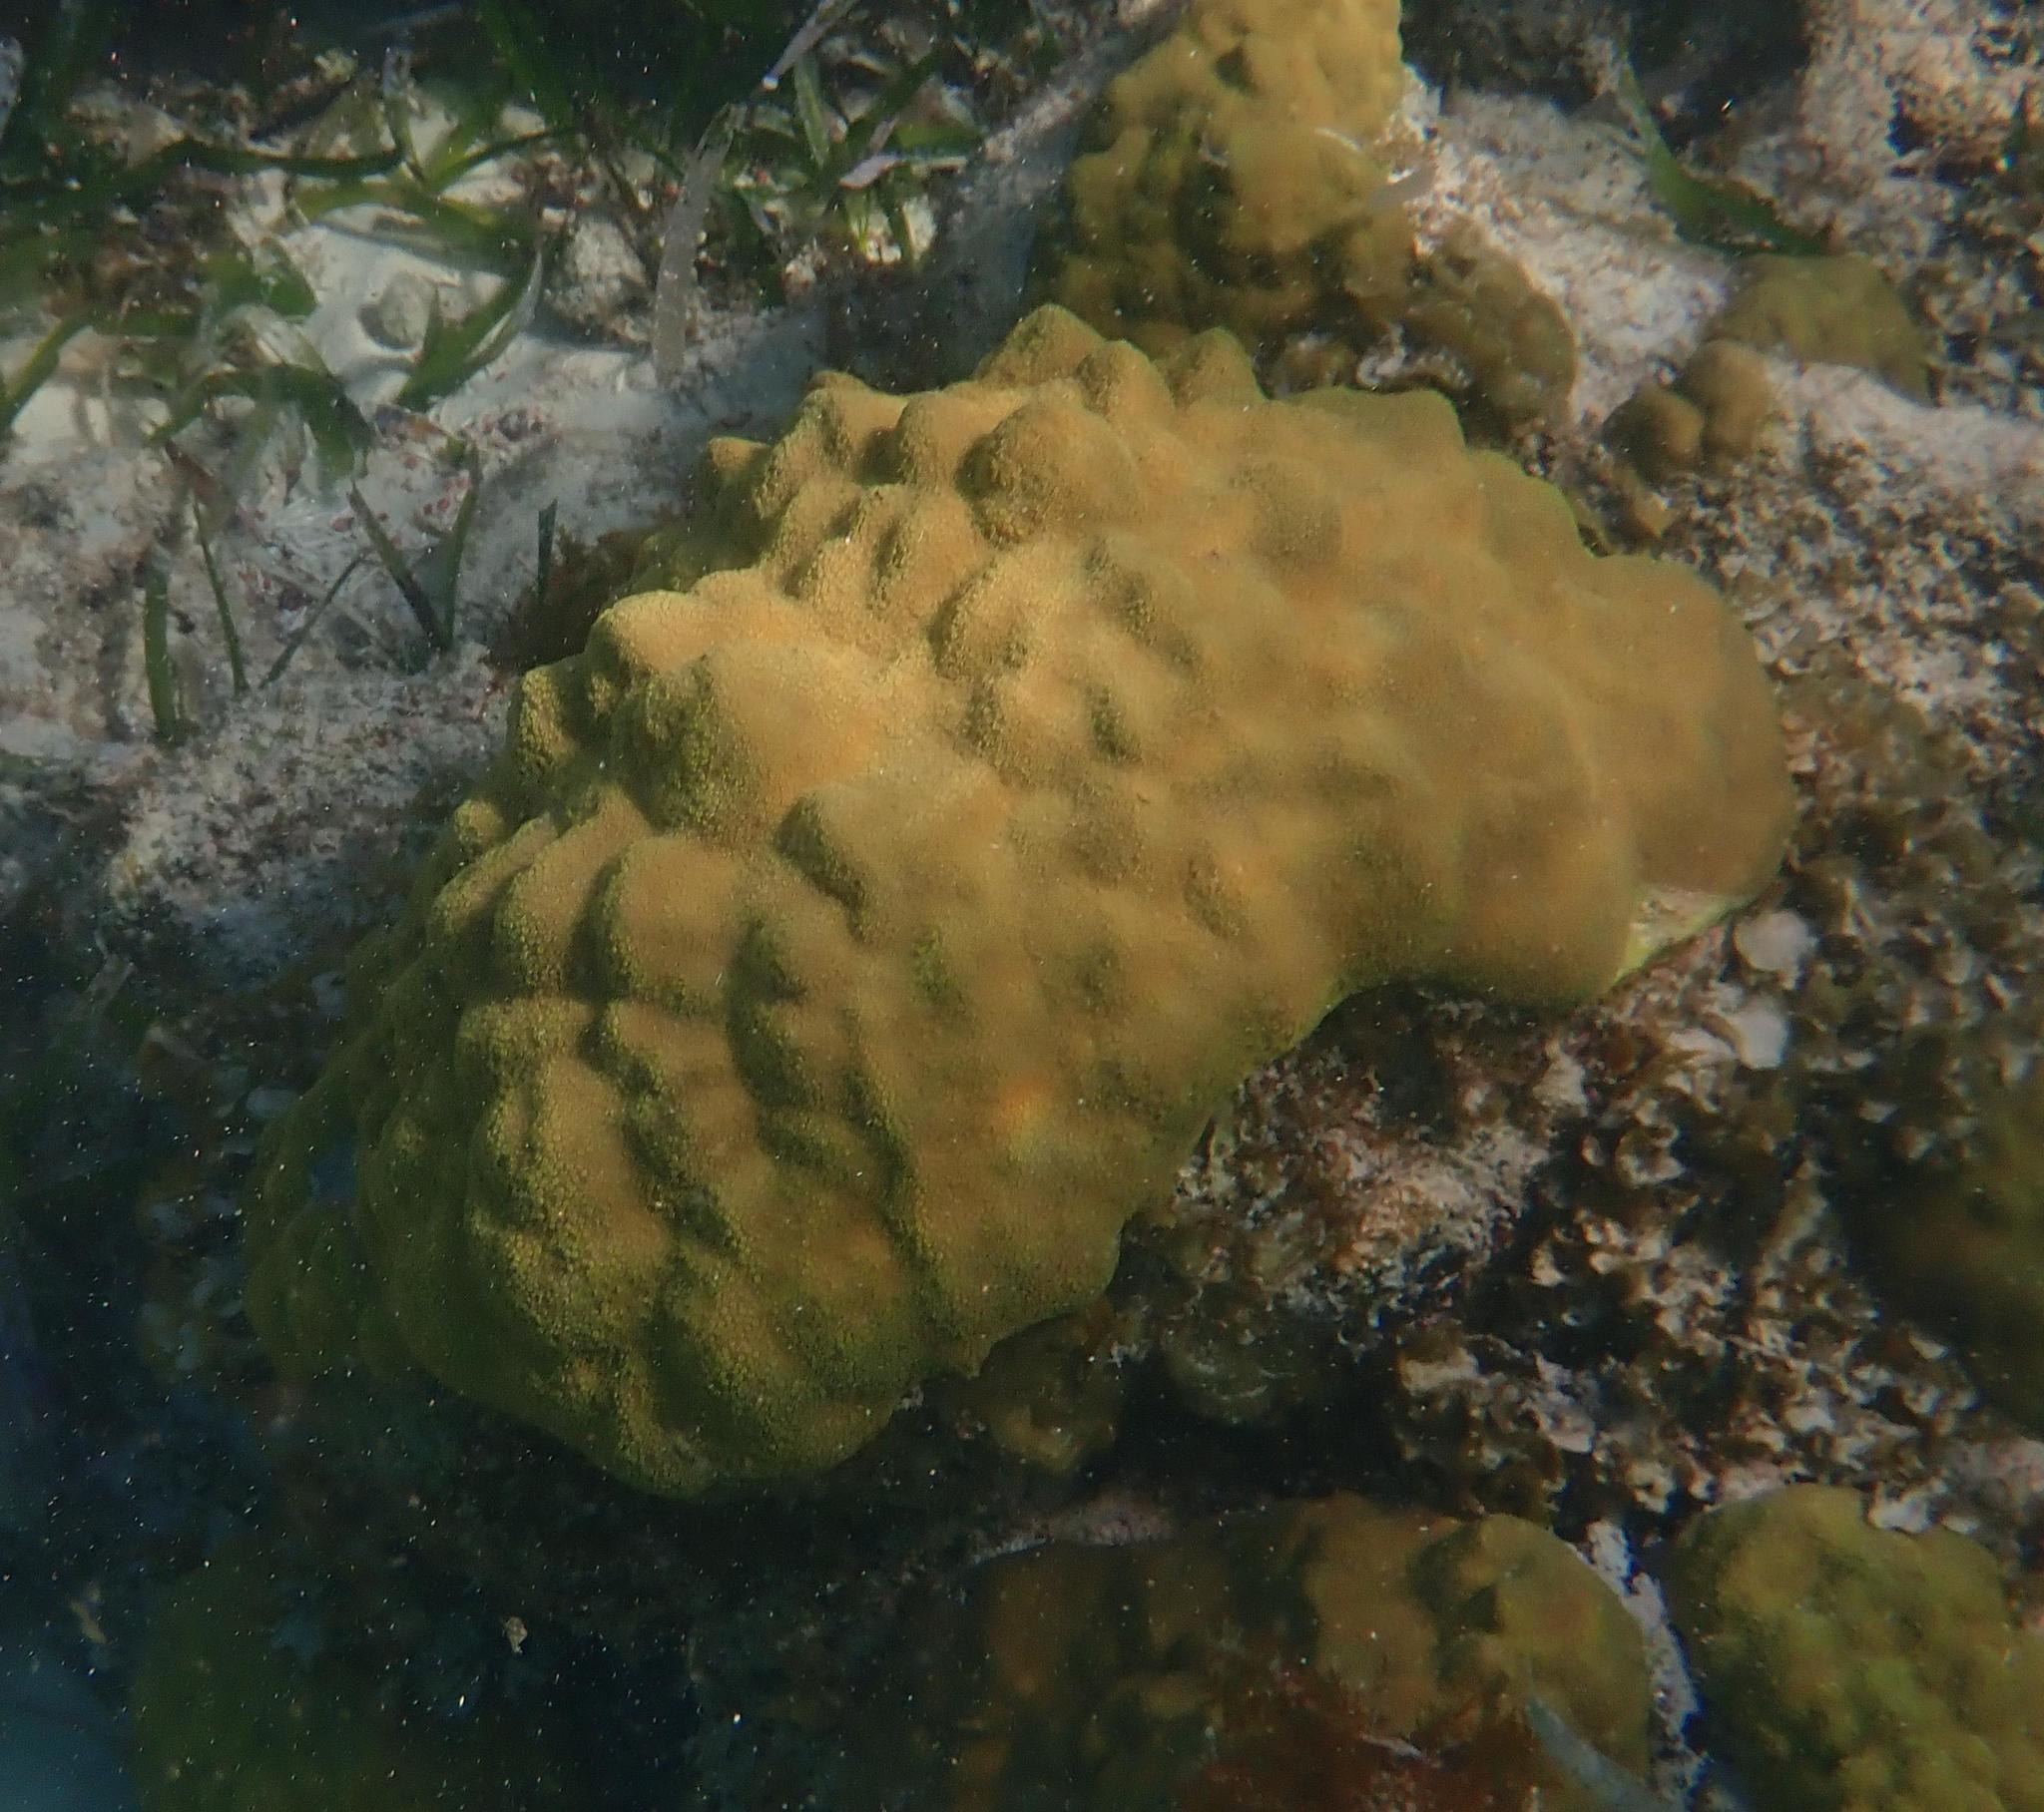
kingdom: Animalia
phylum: Cnidaria
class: Anthozoa
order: Scleractinia
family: Poritidae
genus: Porites
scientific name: Porites astreoides
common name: Mustard hill coral
